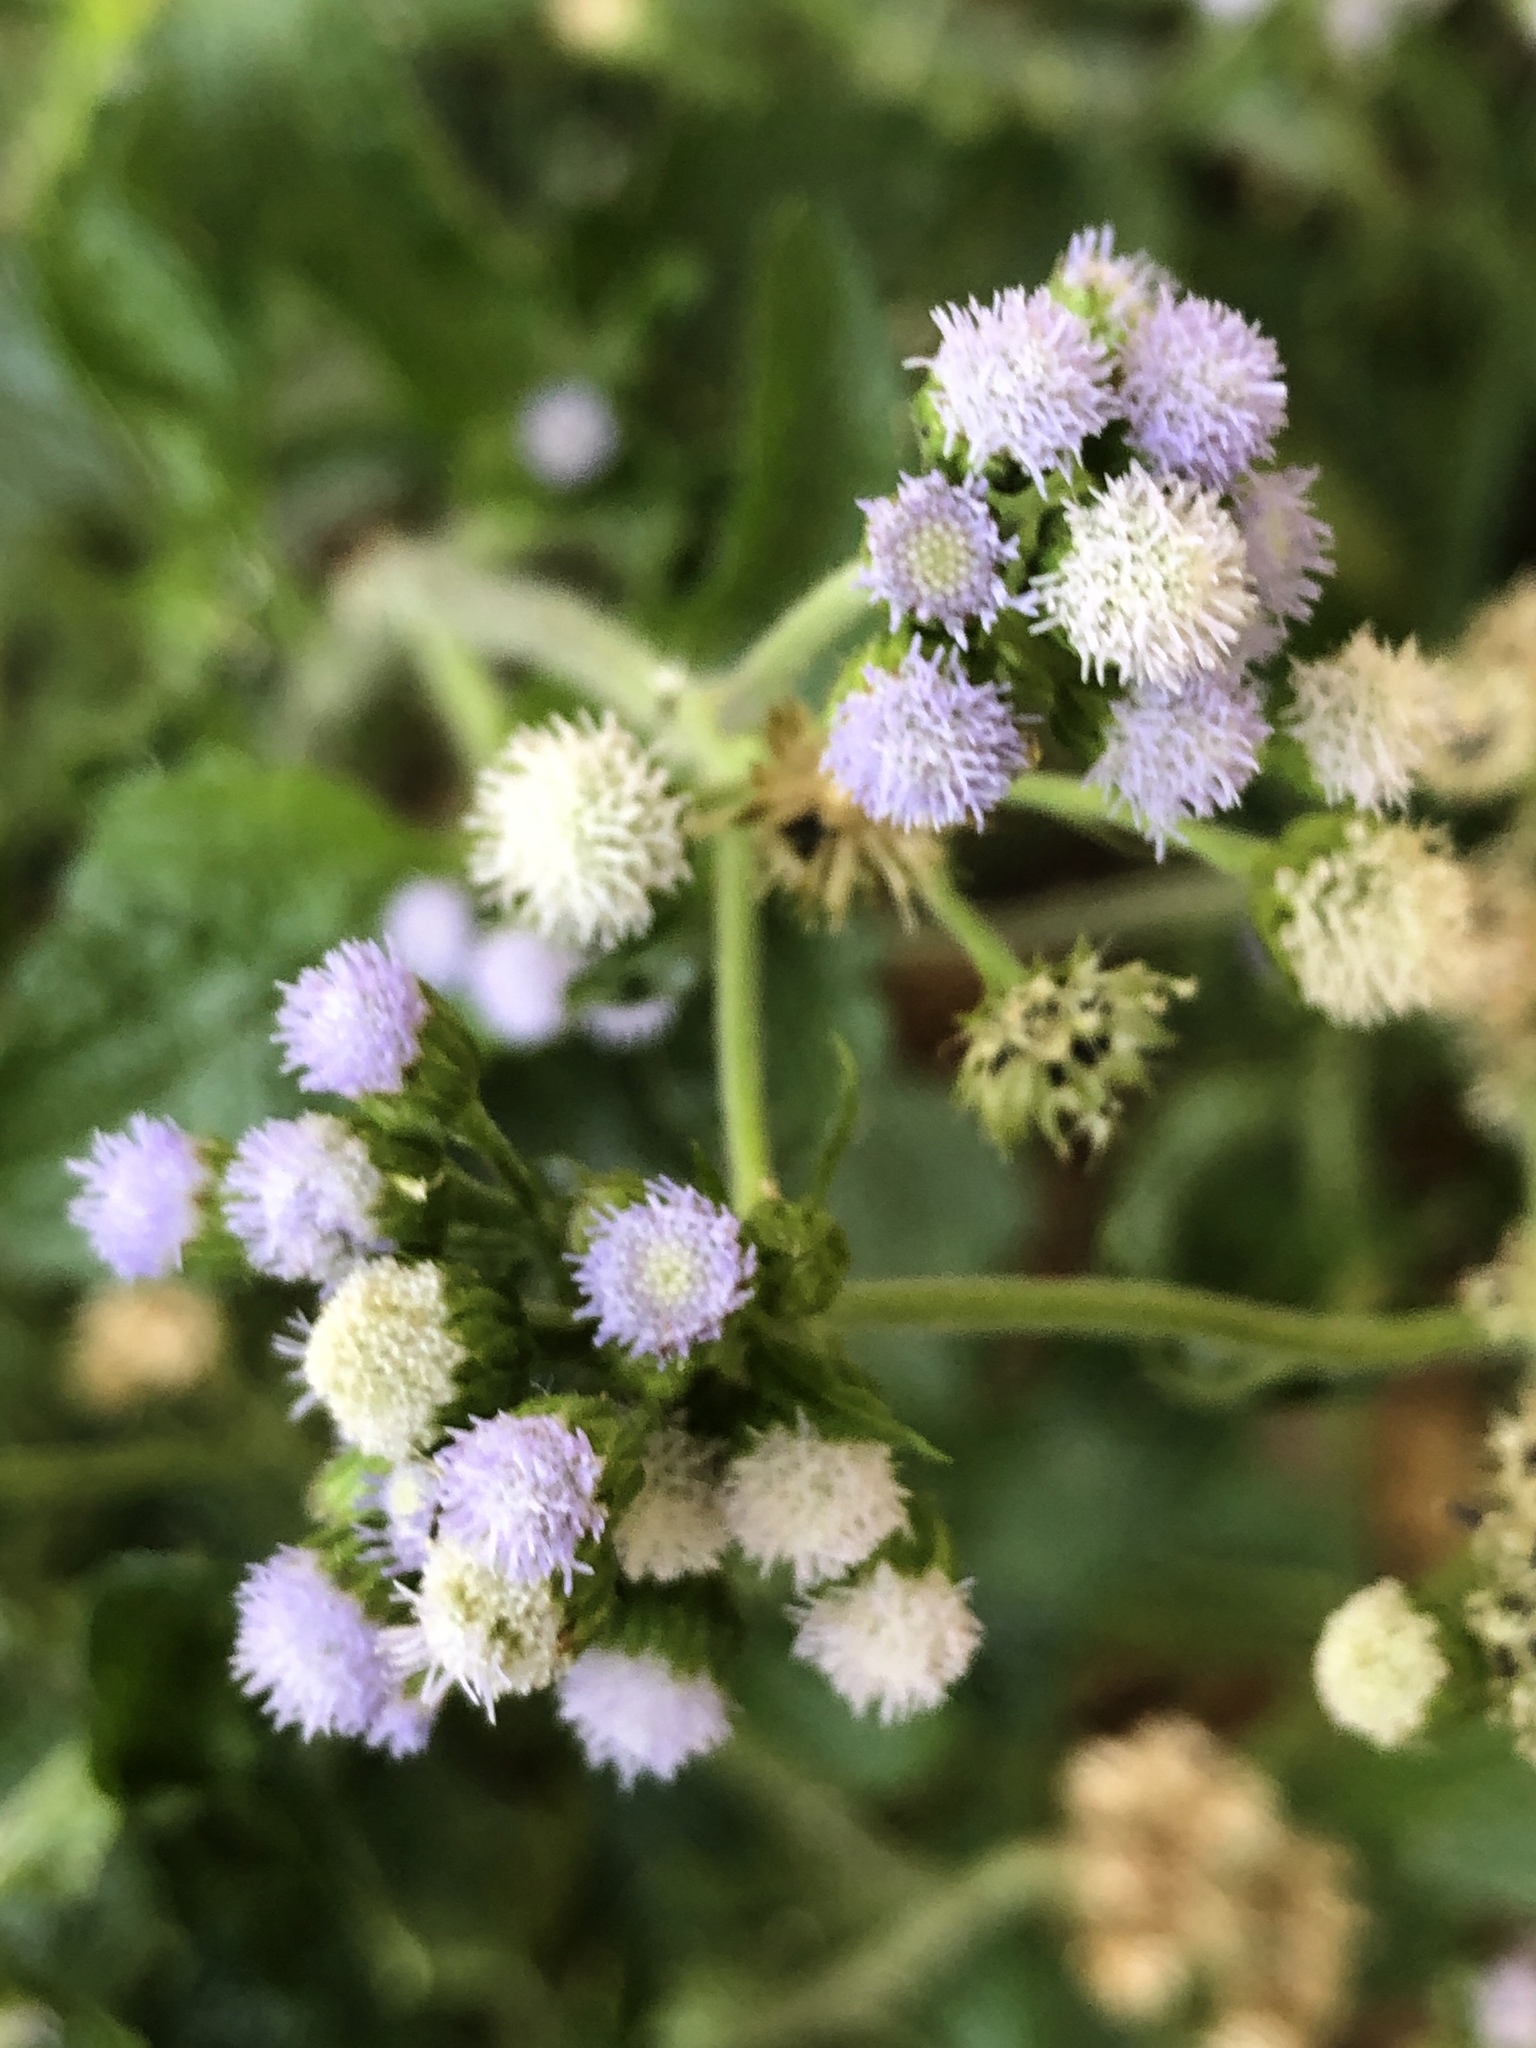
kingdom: Plantae
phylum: Tracheophyta
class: Magnoliopsida
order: Asterales
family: Asteraceae
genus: Ageratum
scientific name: Ageratum conyzoides
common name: Tropical whiteweed
